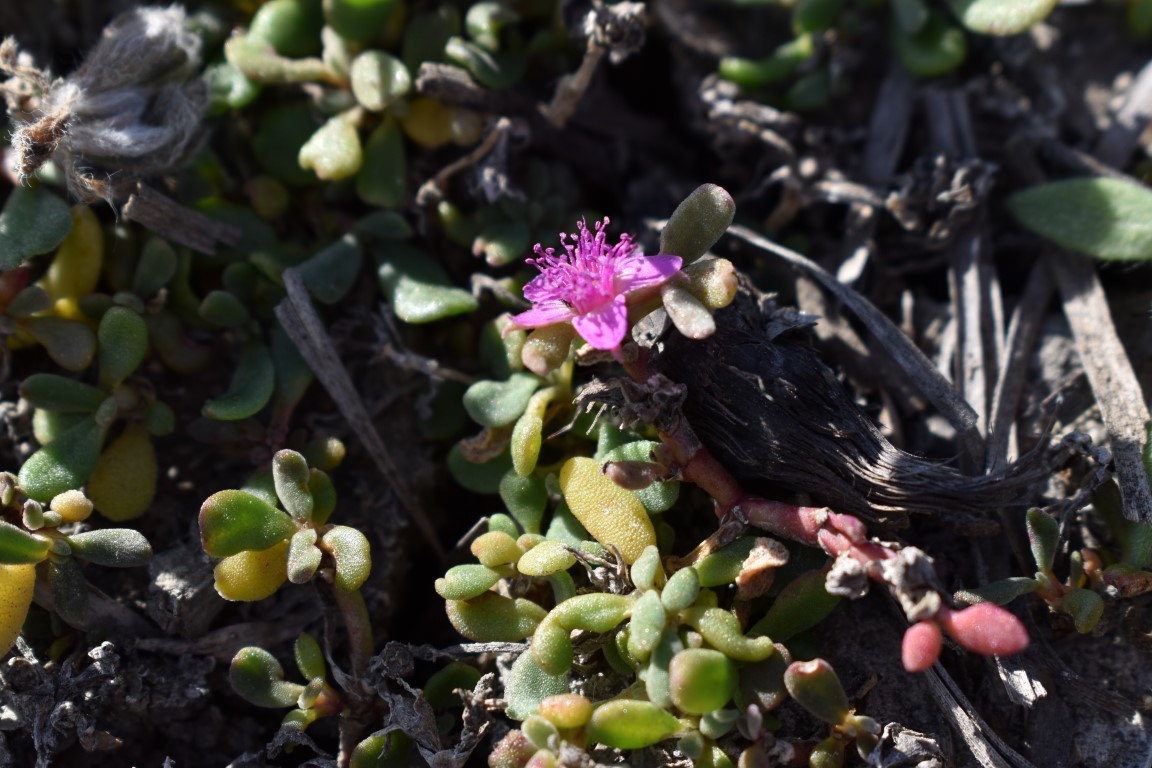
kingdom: Plantae
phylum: Tracheophyta
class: Magnoliopsida
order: Caryophyllales
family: Aizoaceae
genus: Sesuvium
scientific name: Sesuvium revolutifolium
